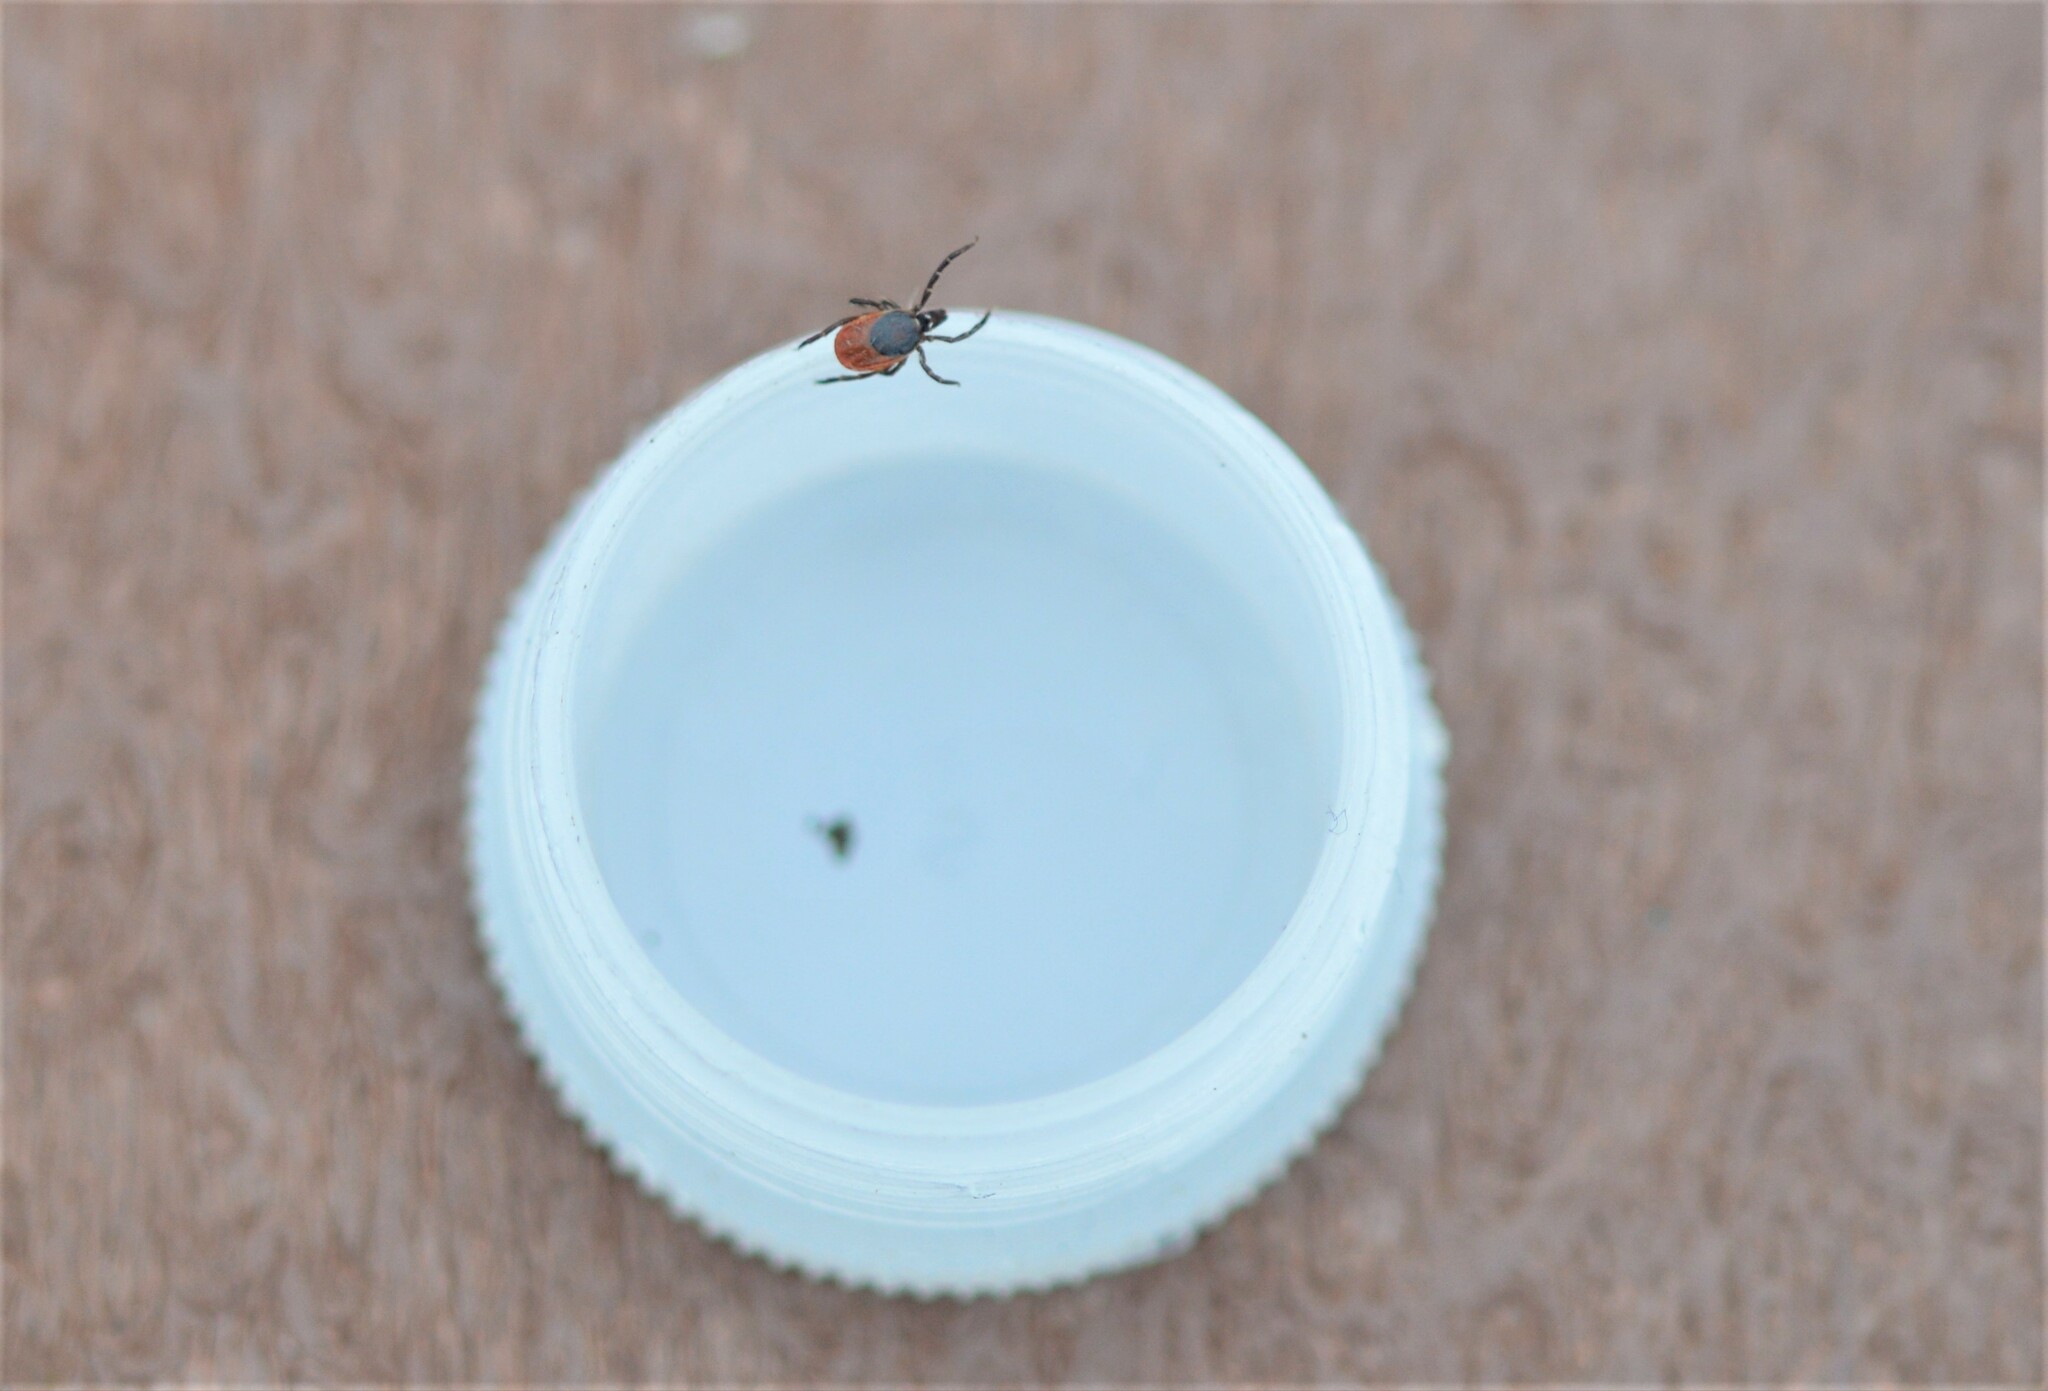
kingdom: Animalia
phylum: Arthropoda
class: Arachnida
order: Ixodida
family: Ixodidae
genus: Ixodes
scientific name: Ixodes ricinus
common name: Castor bean tick
